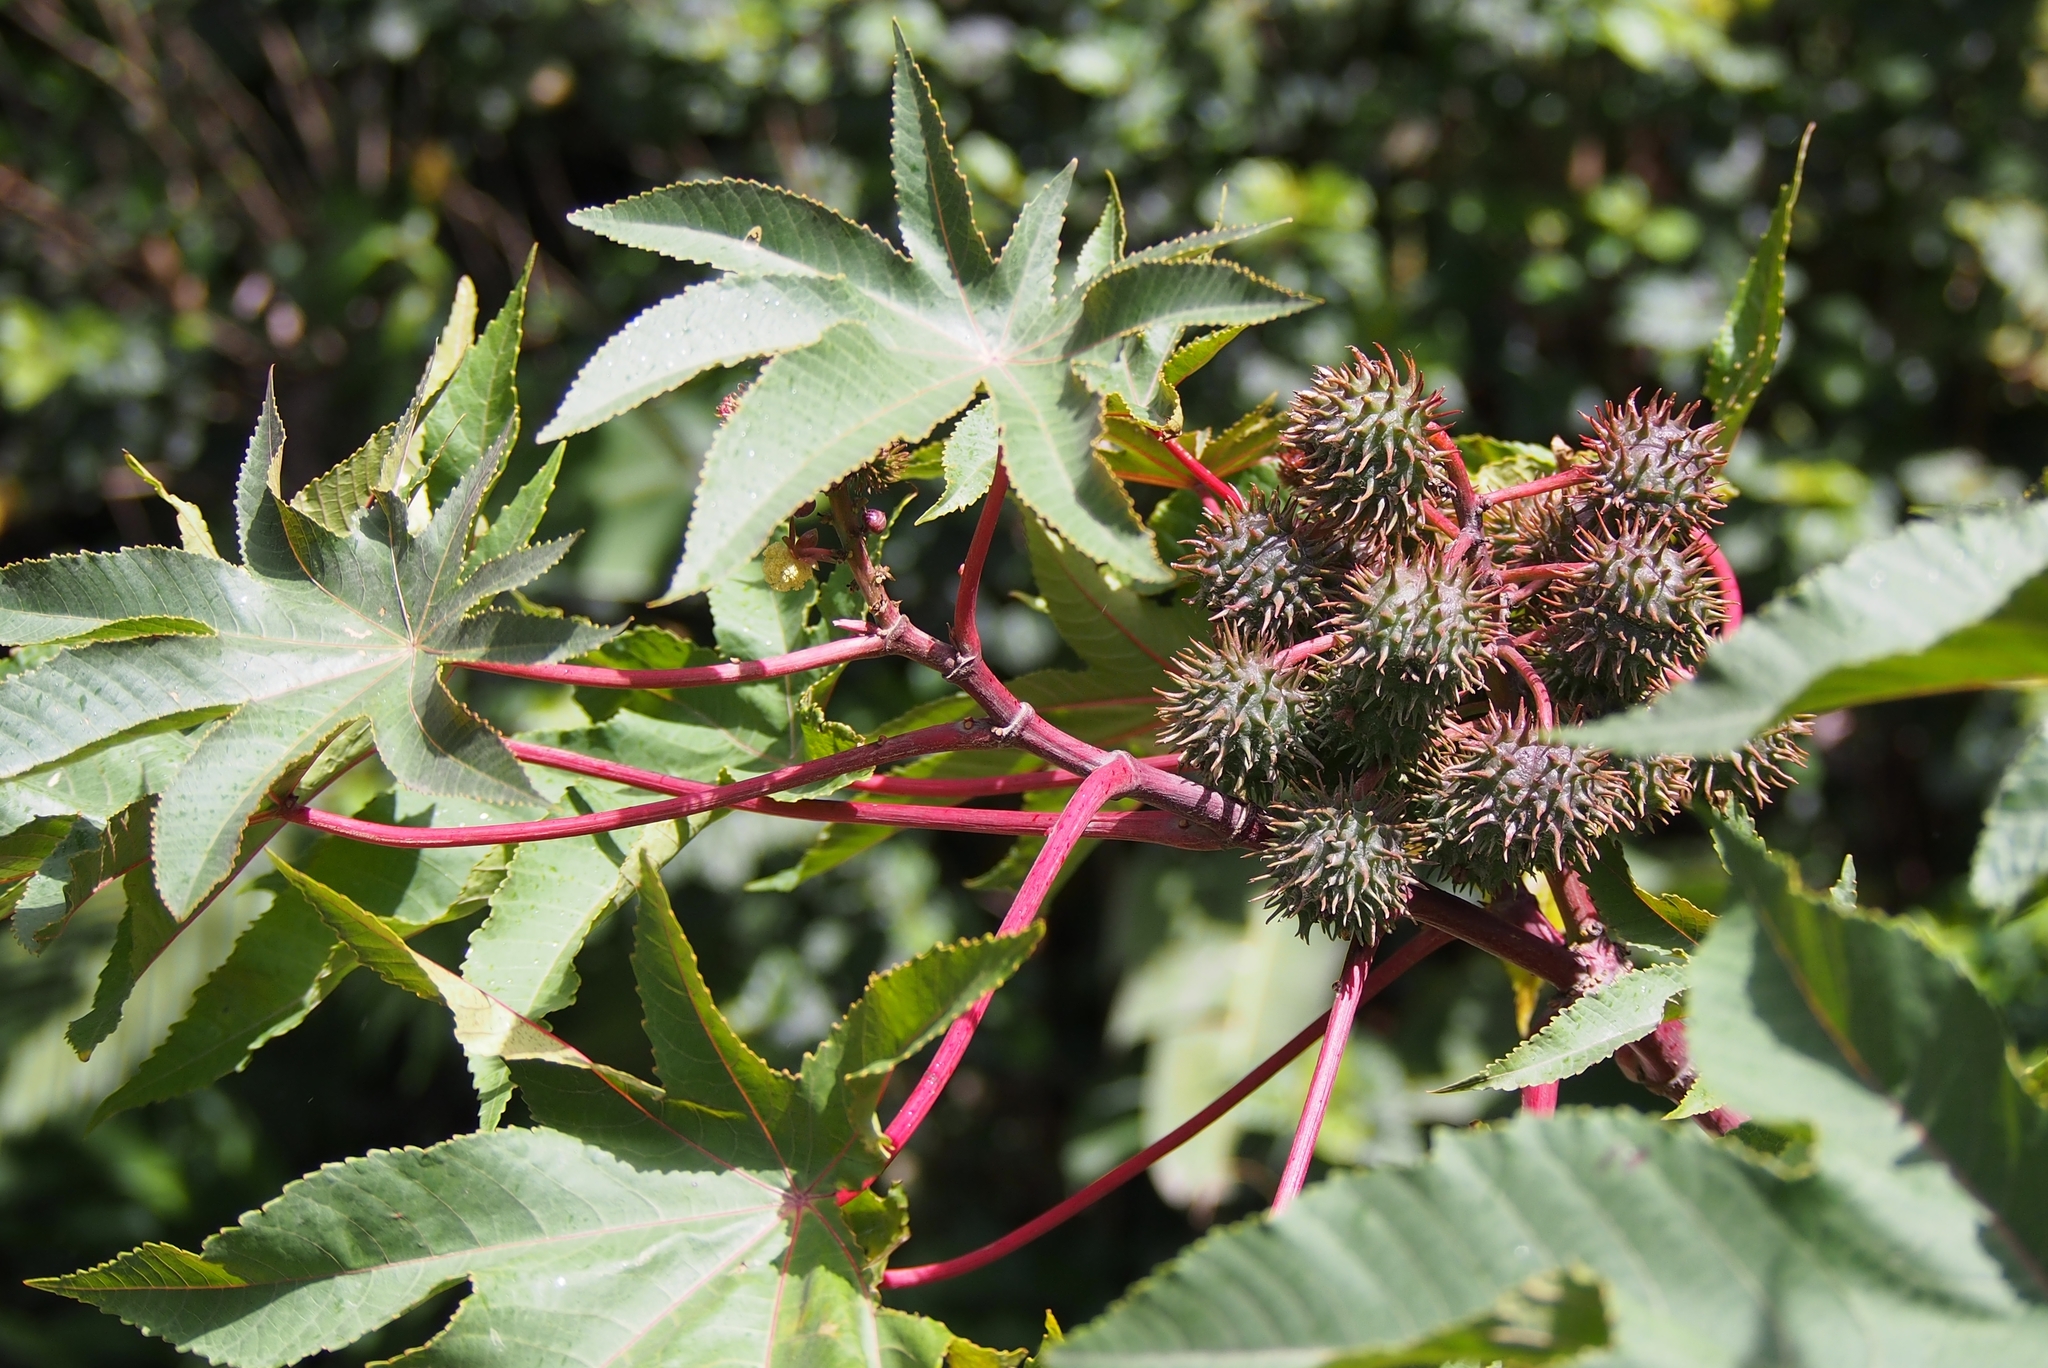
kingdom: Plantae
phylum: Tracheophyta
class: Magnoliopsida
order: Malpighiales
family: Euphorbiaceae
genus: Ricinus
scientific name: Ricinus communis
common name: Castor-oil-plant
